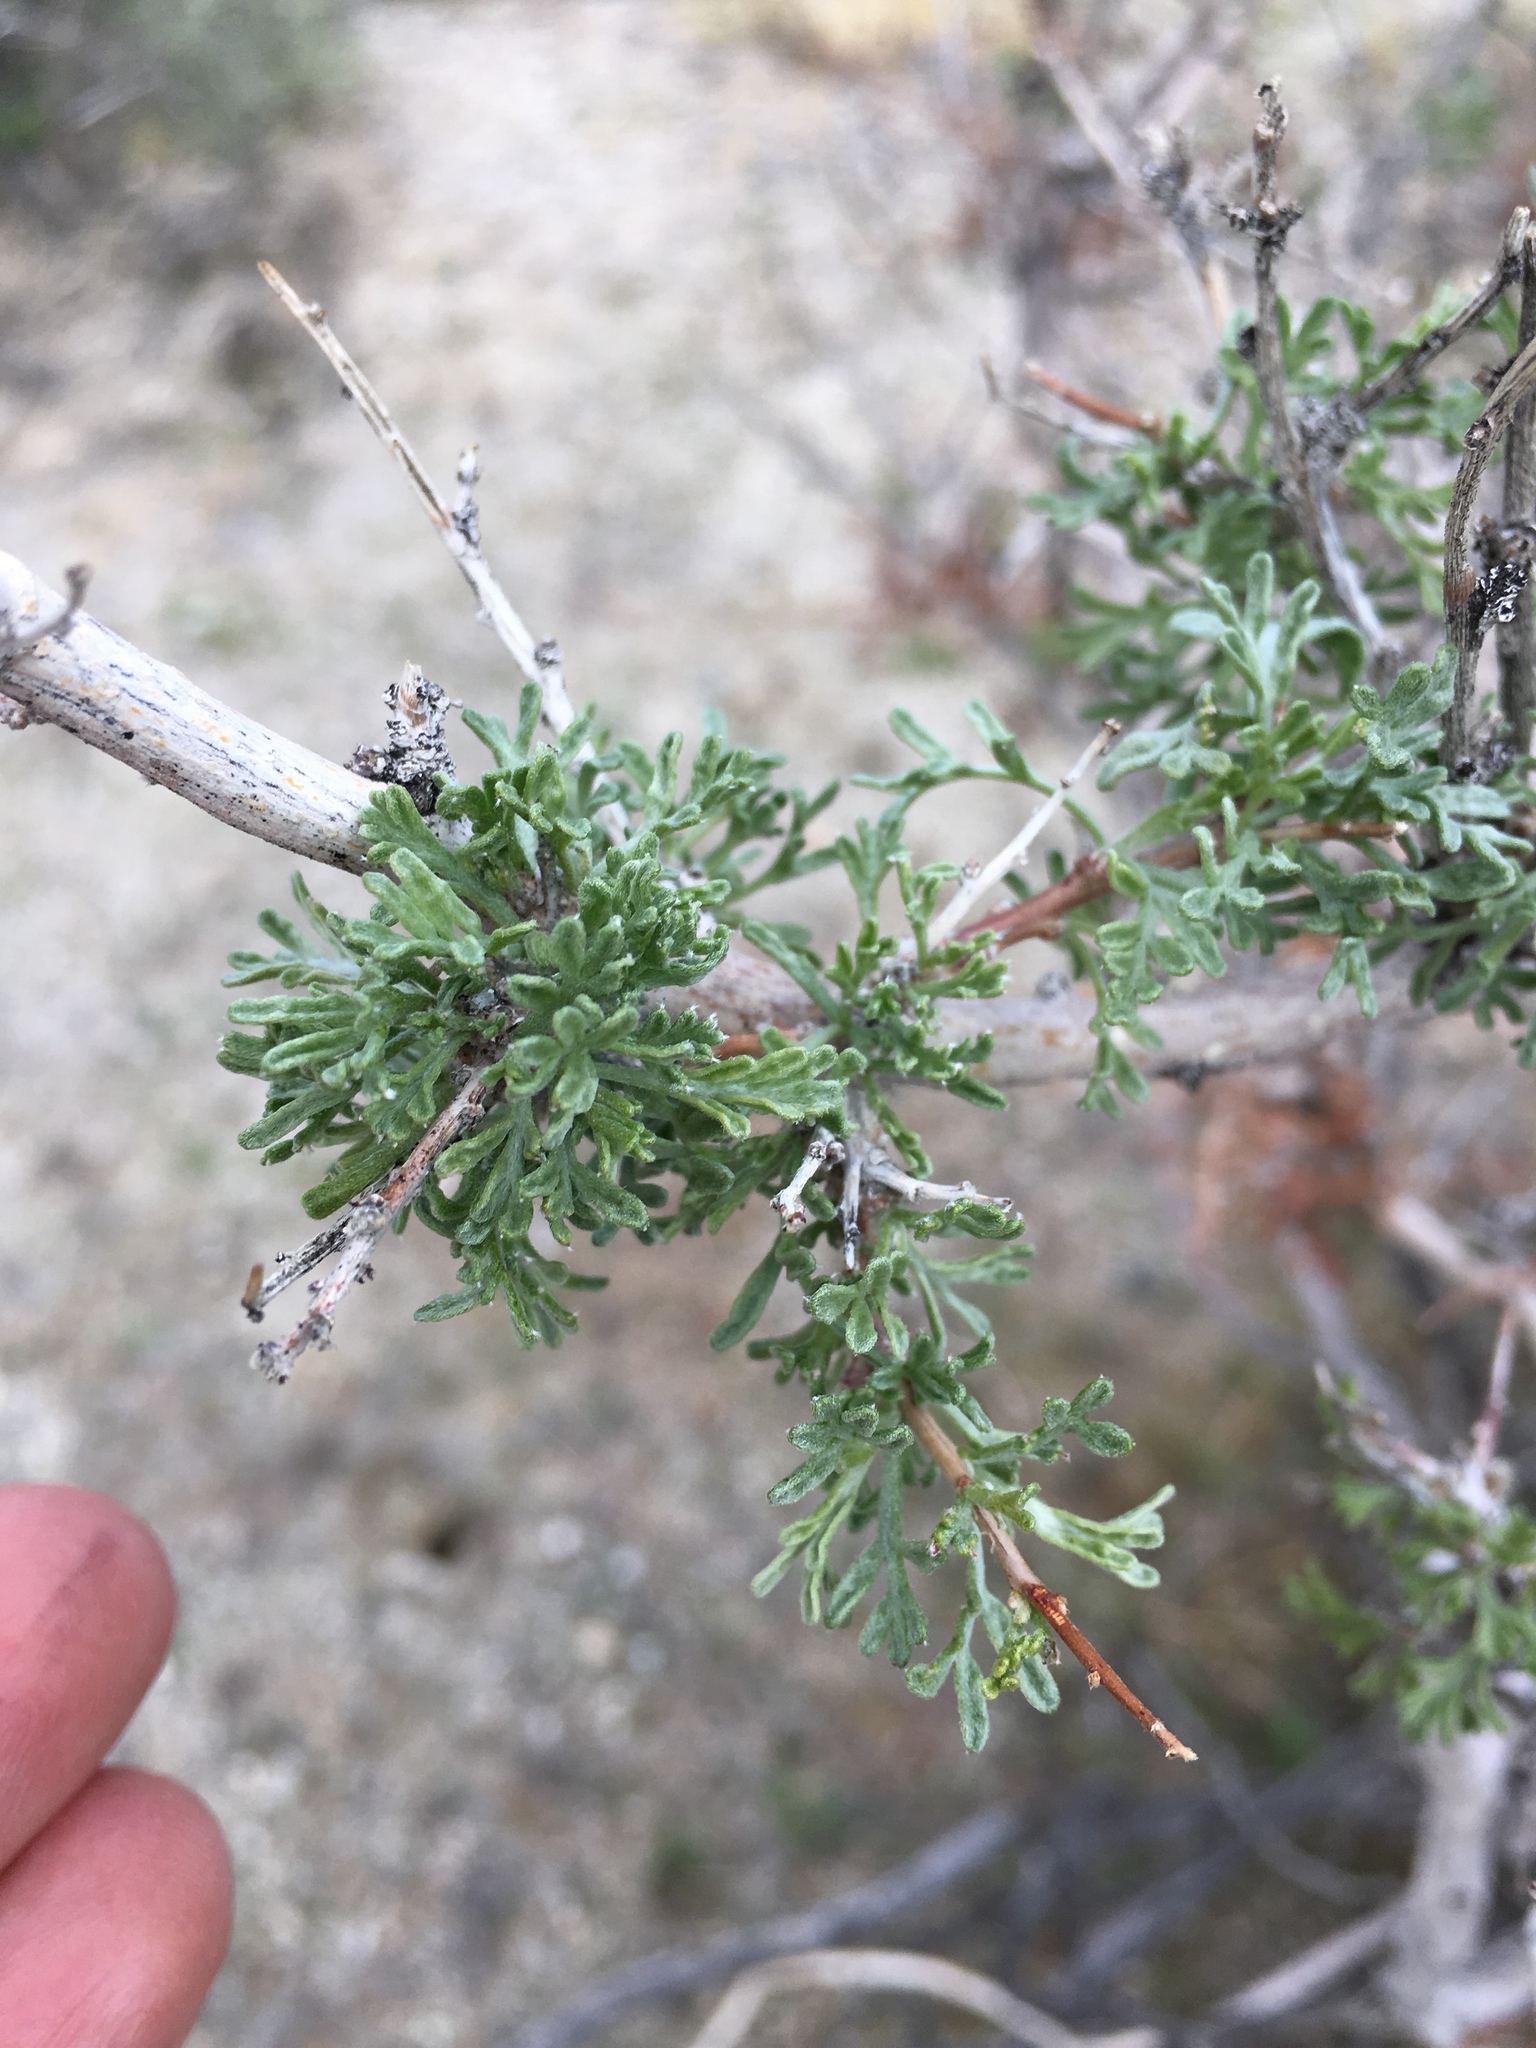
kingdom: Plantae
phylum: Tracheophyta
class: Magnoliopsida
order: Fabales
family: Fabaceae
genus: Psorothamnus
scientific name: Psorothamnus arborescens
